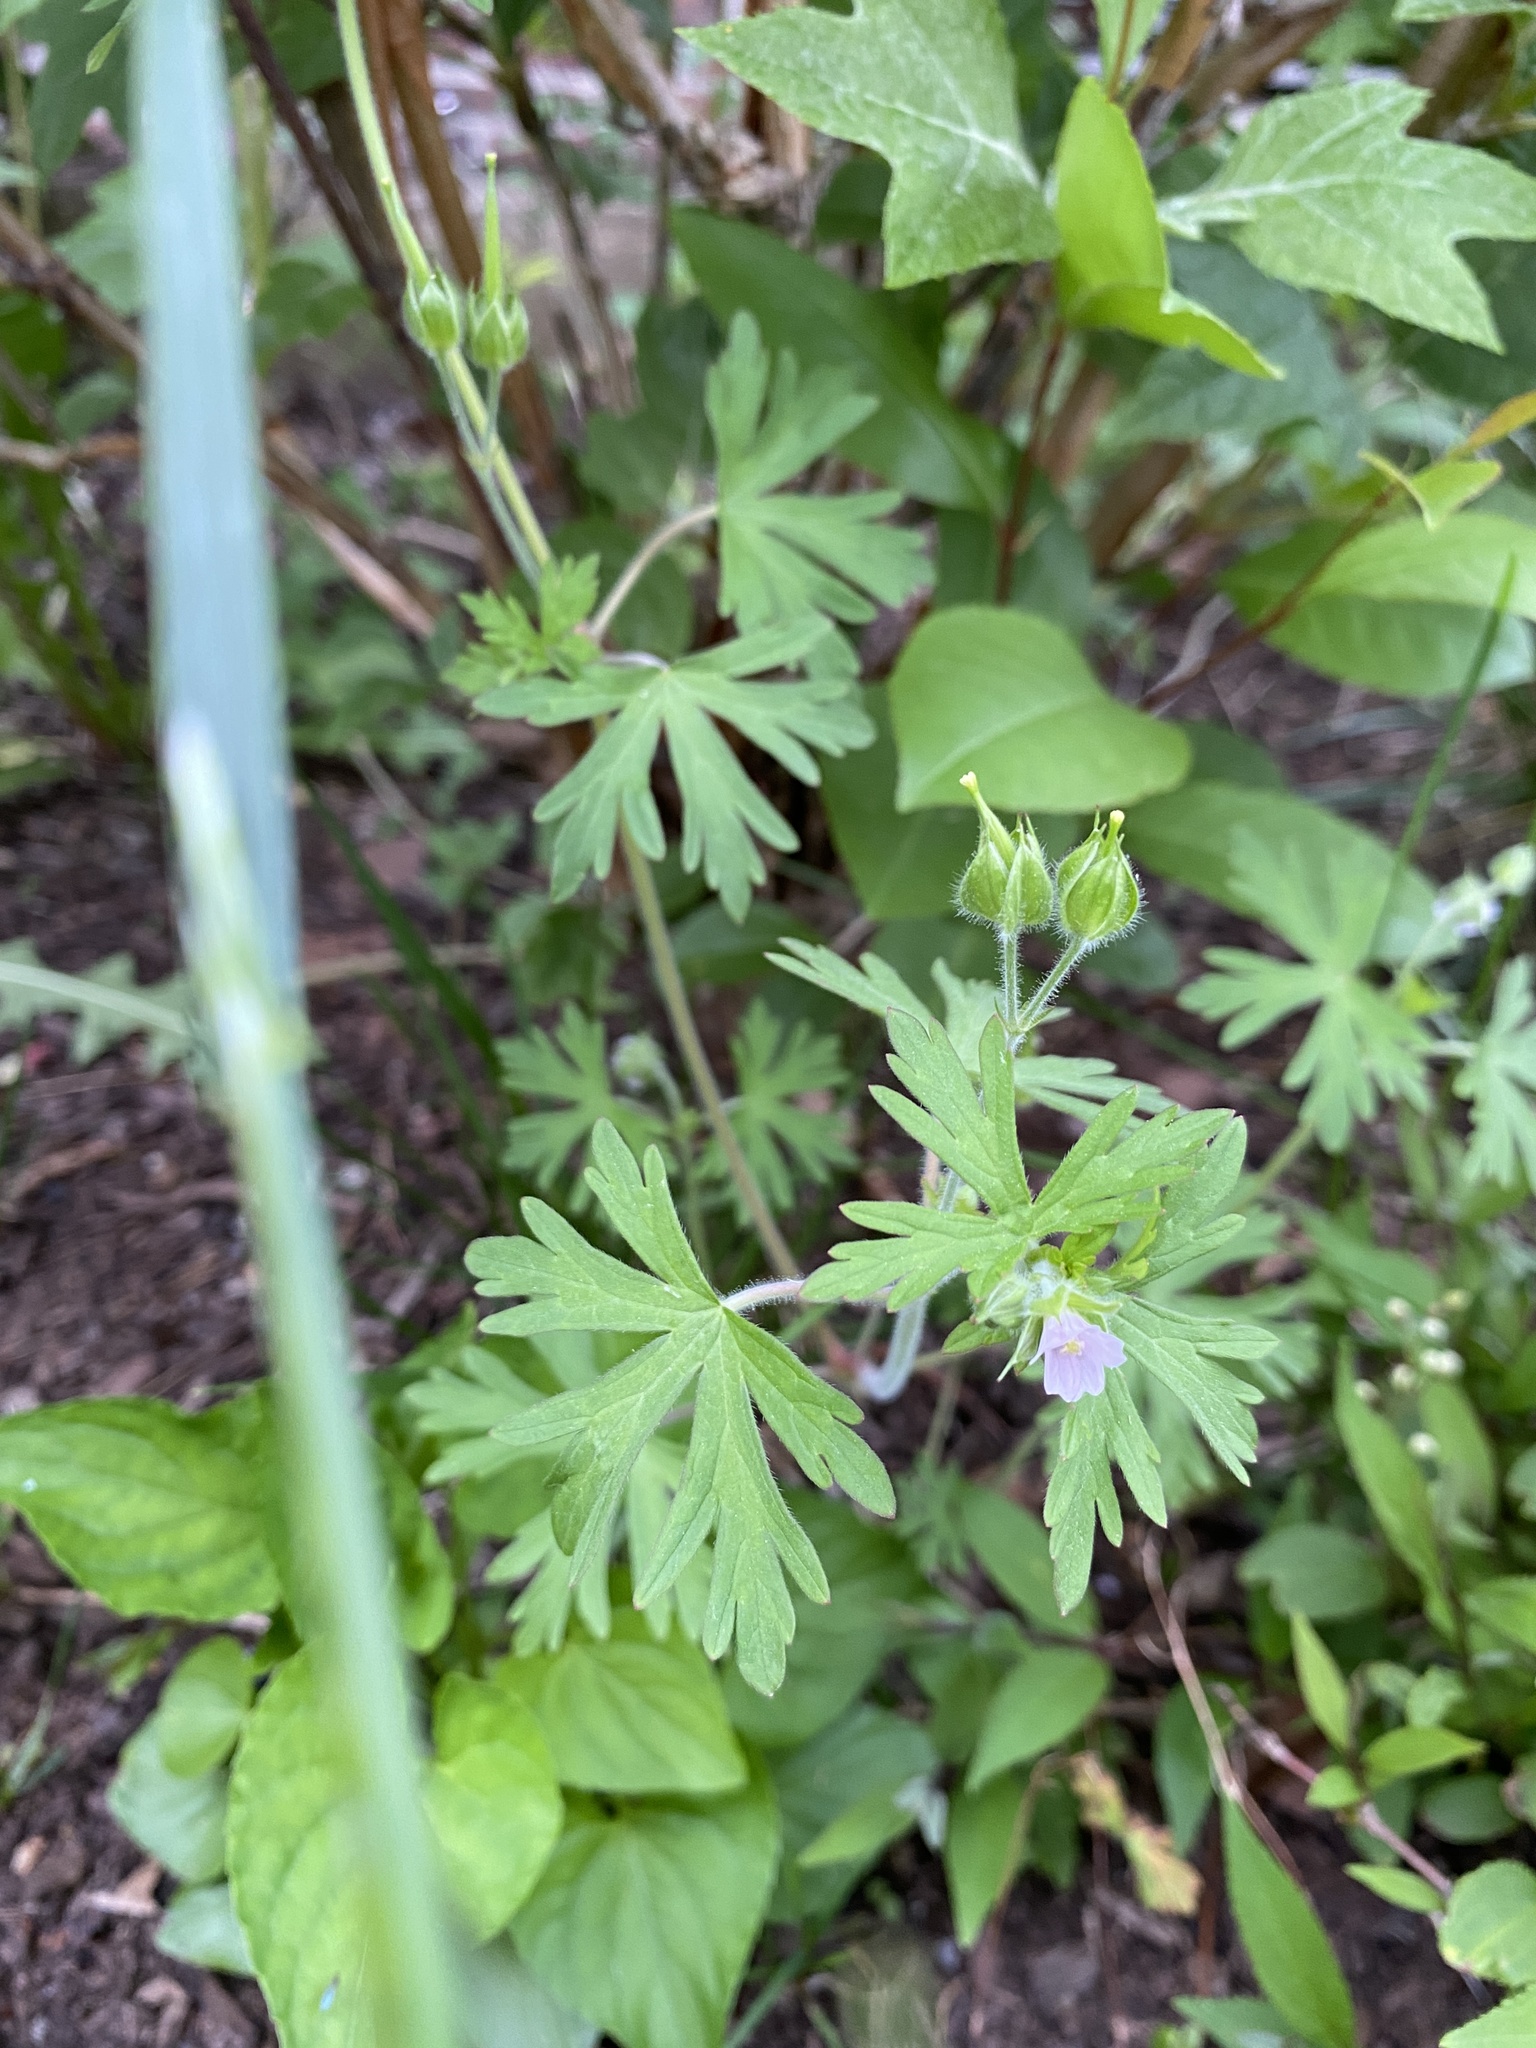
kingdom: Plantae
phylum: Tracheophyta
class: Magnoliopsida
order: Geraniales
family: Geraniaceae
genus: Geranium
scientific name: Geranium carolinianum
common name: Carolina crane's-bill
